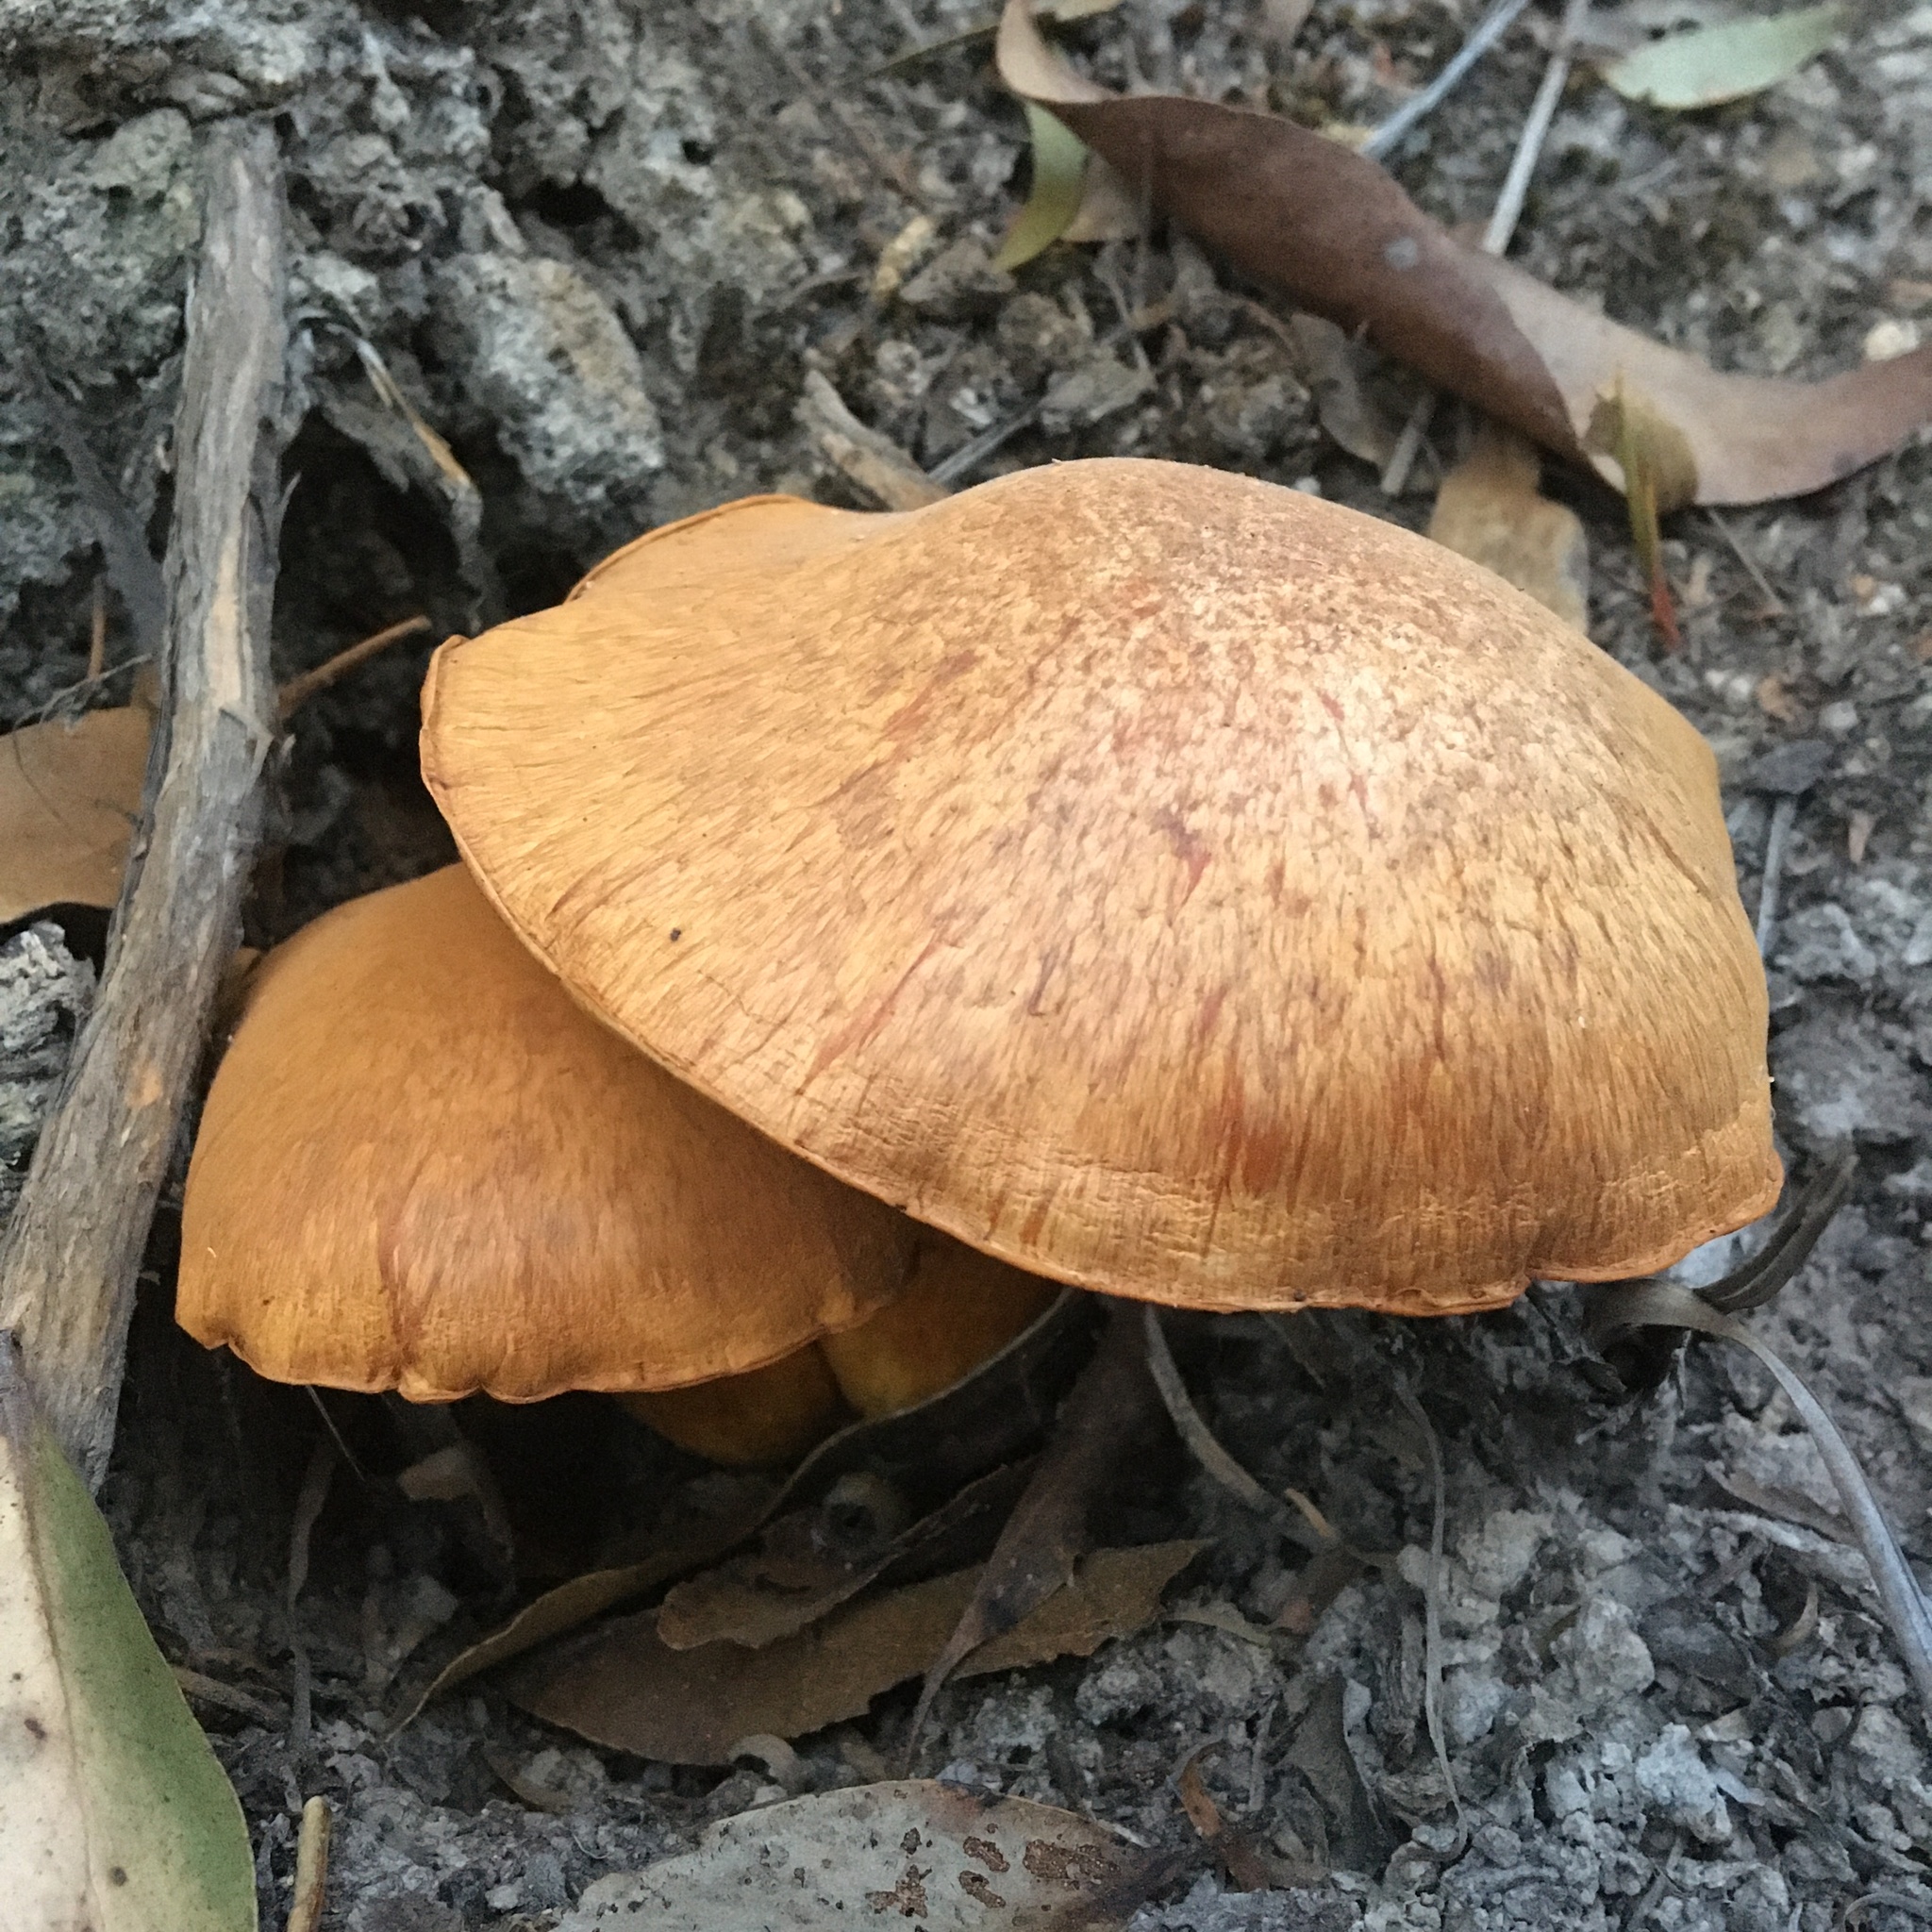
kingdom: Fungi
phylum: Basidiomycota
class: Agaricomycetes
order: Agaricales
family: Hymenogastraceae
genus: Gymnopilus
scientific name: Gymnopilus junonius
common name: Spectacular rustgill
